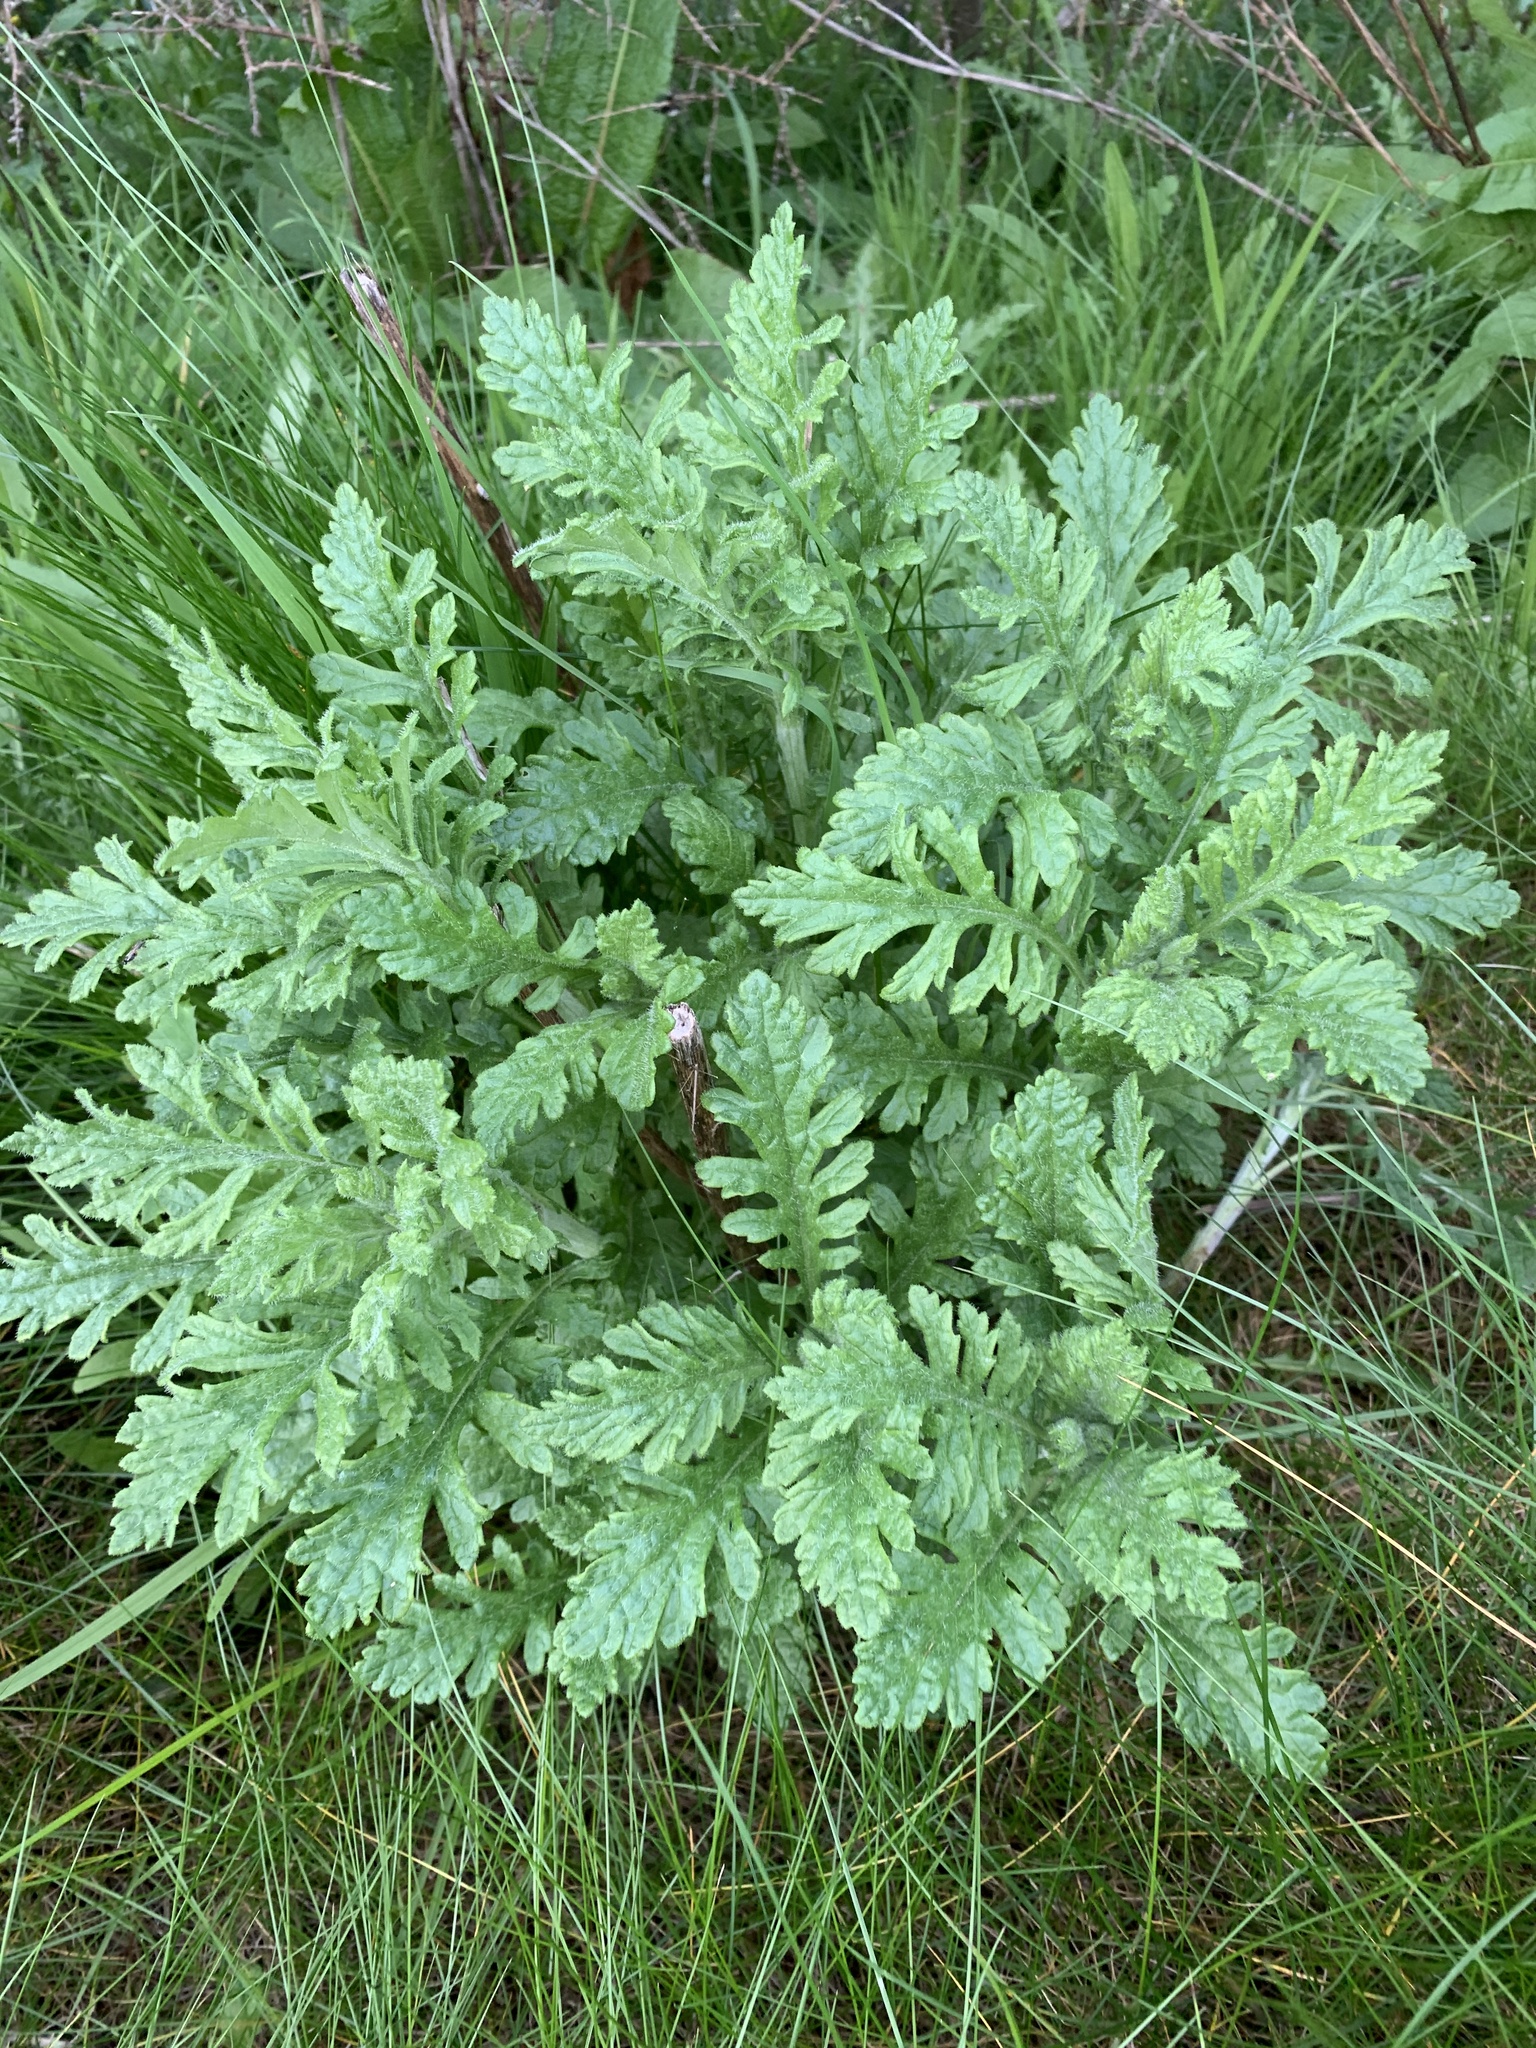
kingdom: Plantae
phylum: Tracheophyta
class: Magnoliopsida
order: Asterales
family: Asteraceae
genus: Jacobaea
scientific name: Jacobaea vulgaris
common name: Stinking willie
